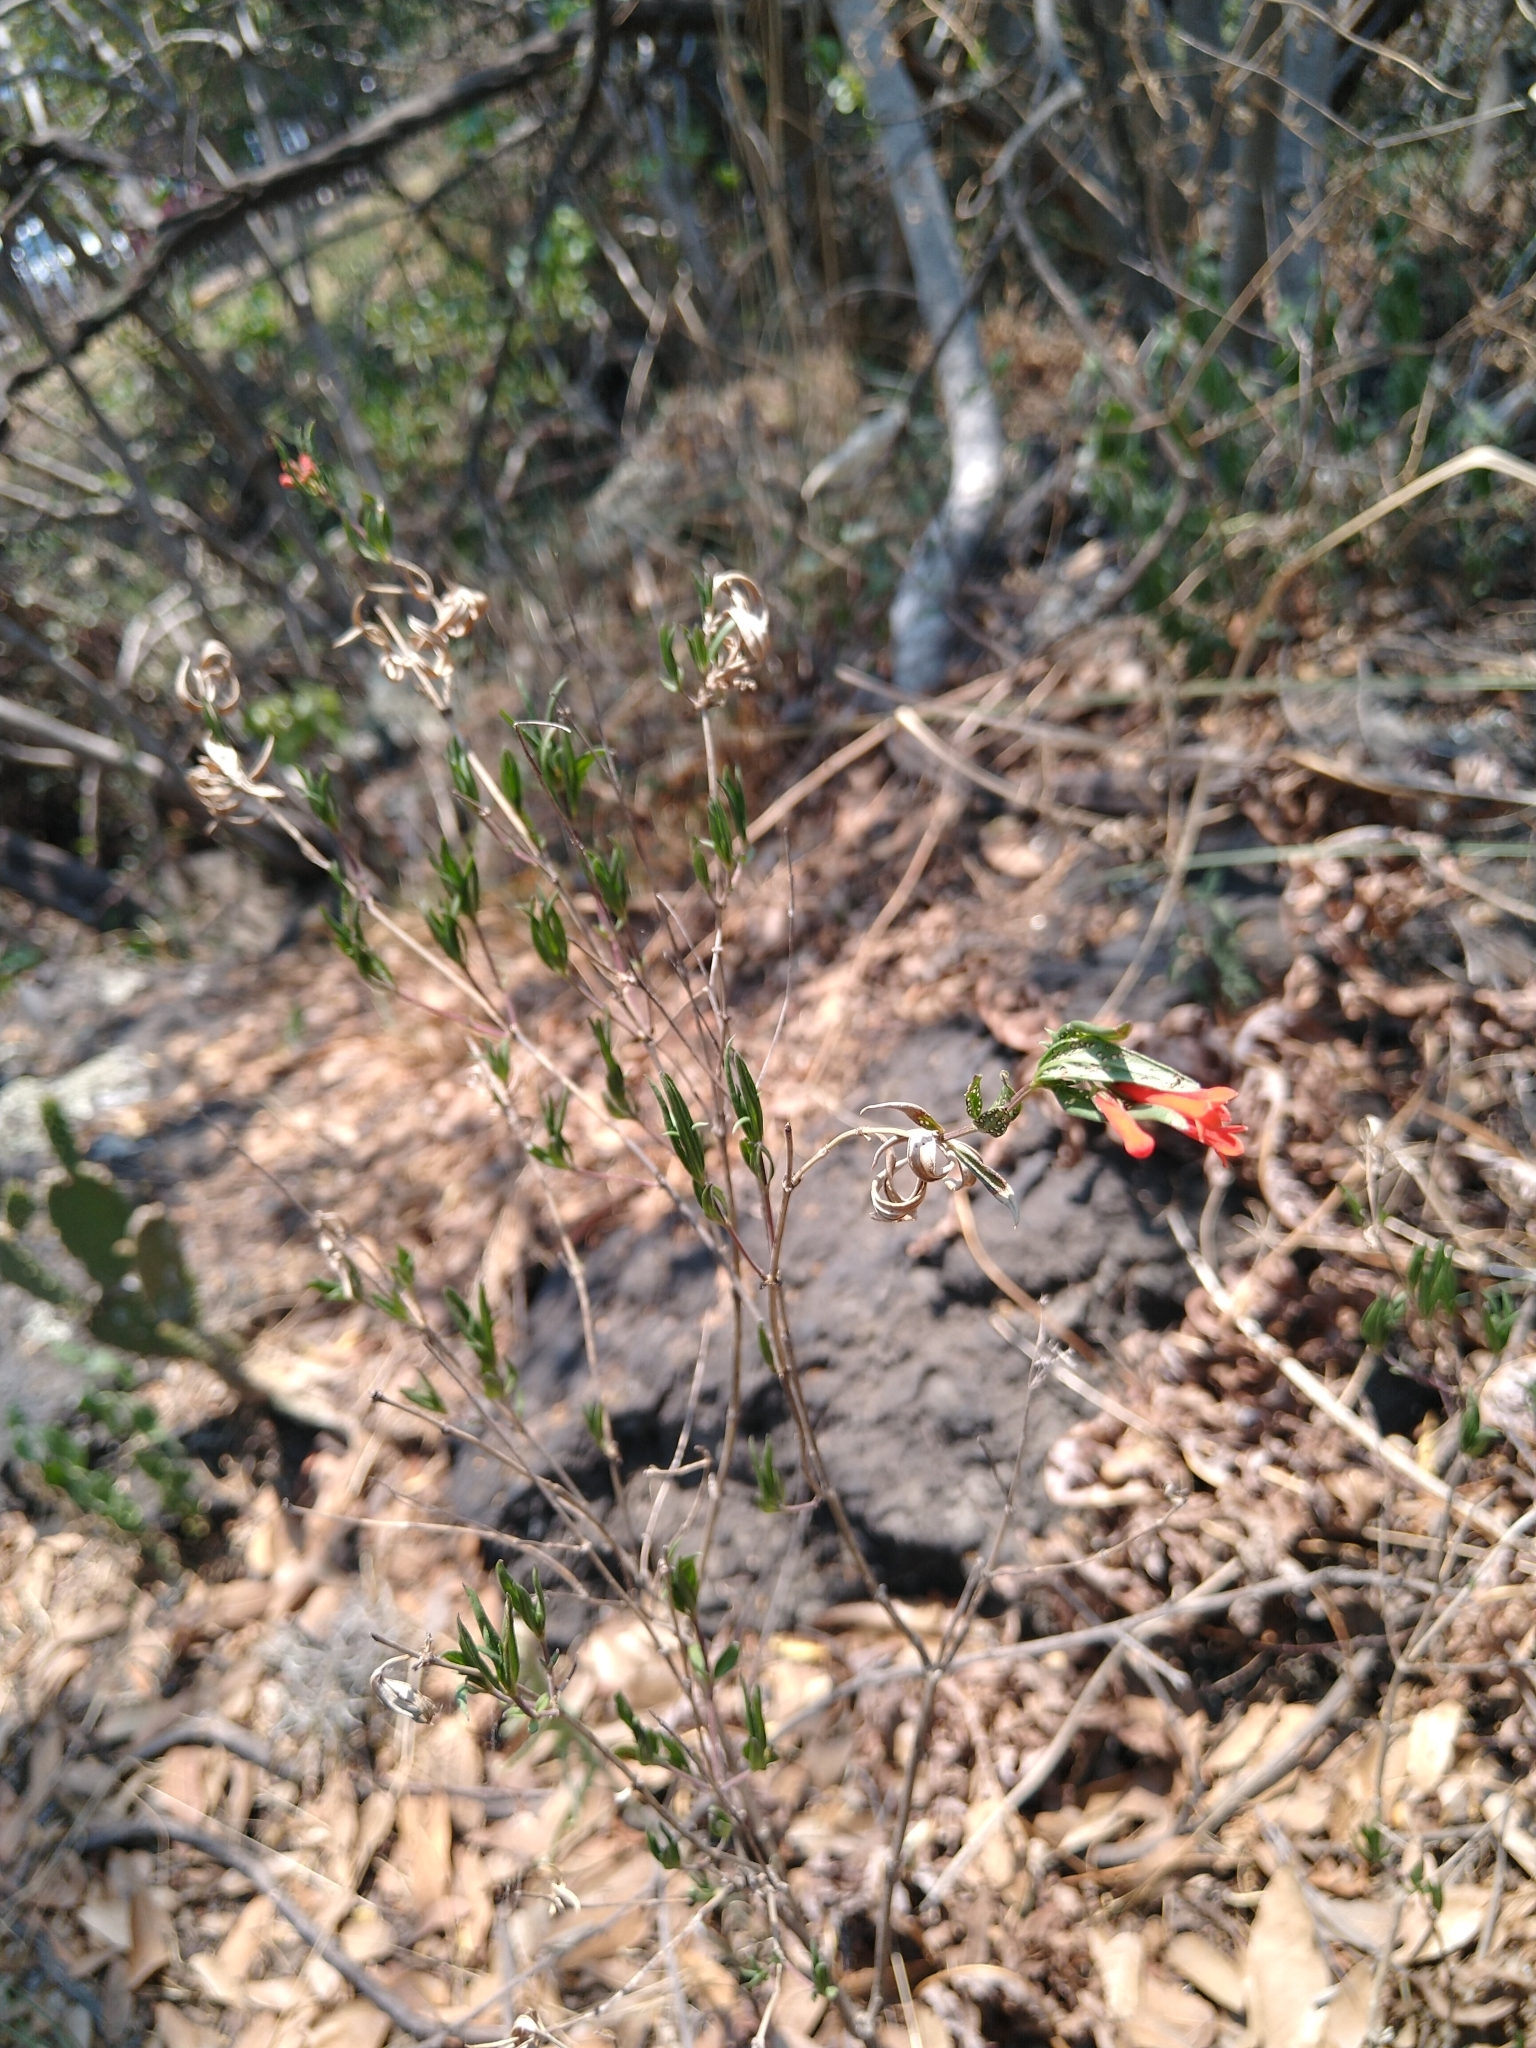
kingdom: Plantae
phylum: Tracheophyta
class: Magnoliopsida
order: Gentianales
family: Rubiaceae
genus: Bouvardia
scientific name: Bouvardia ternifolia
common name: Scarlet bouvardia
